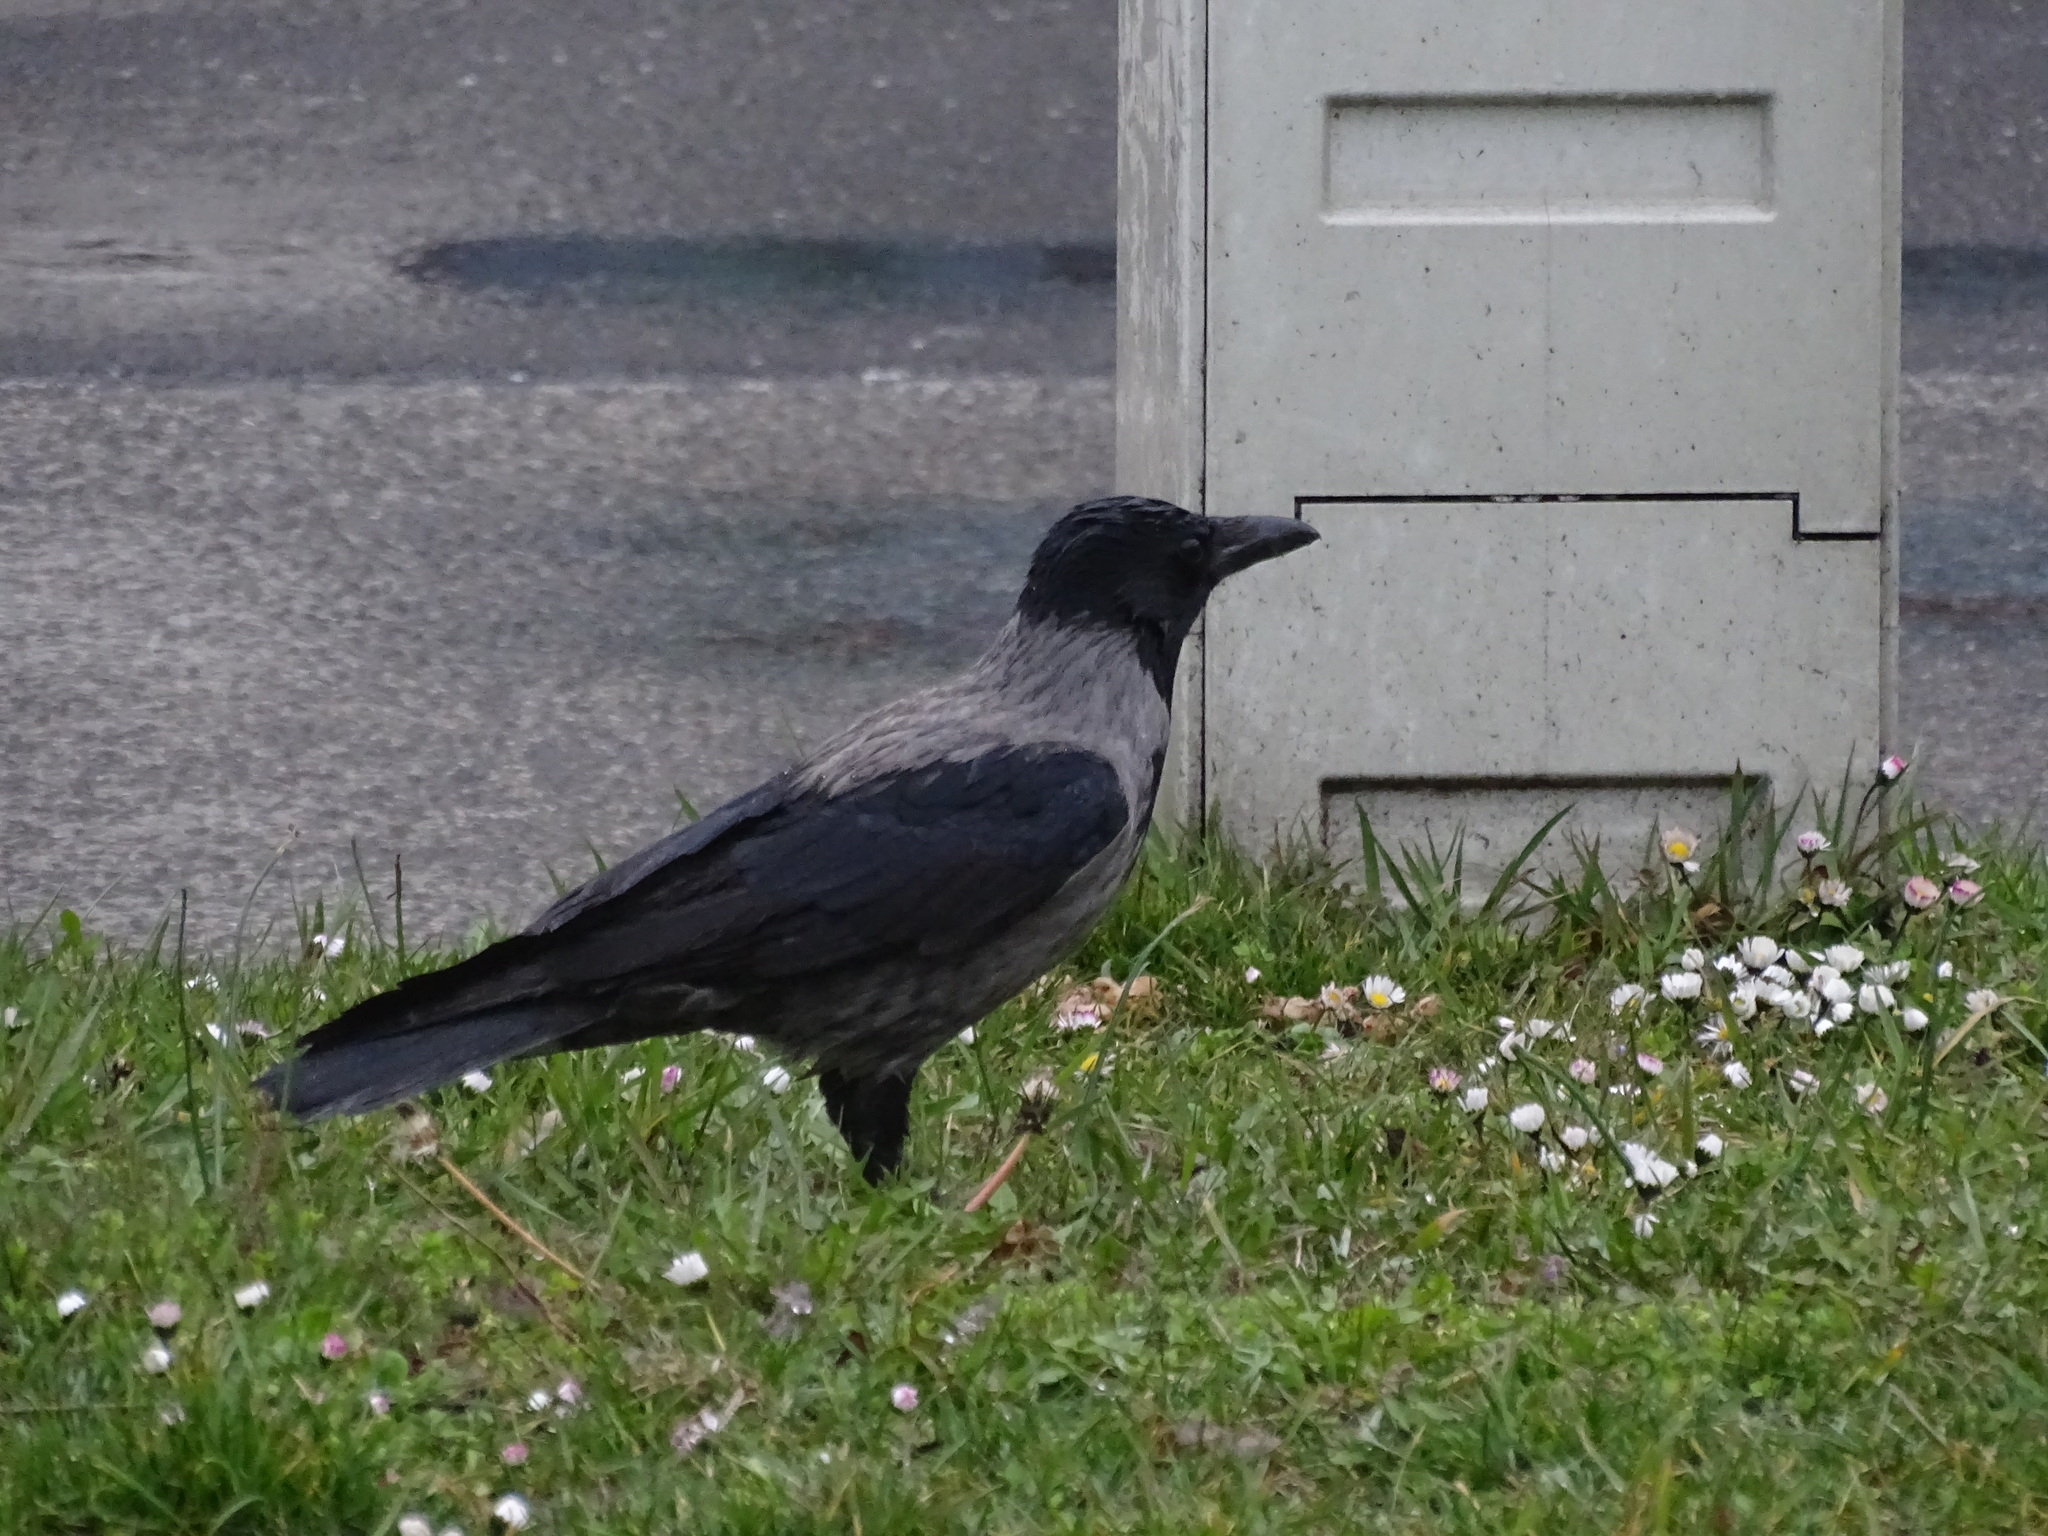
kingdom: Animalia
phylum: Chordata
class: Aves
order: Passeriformes
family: Corvidae
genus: Corvus
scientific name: Corvus
